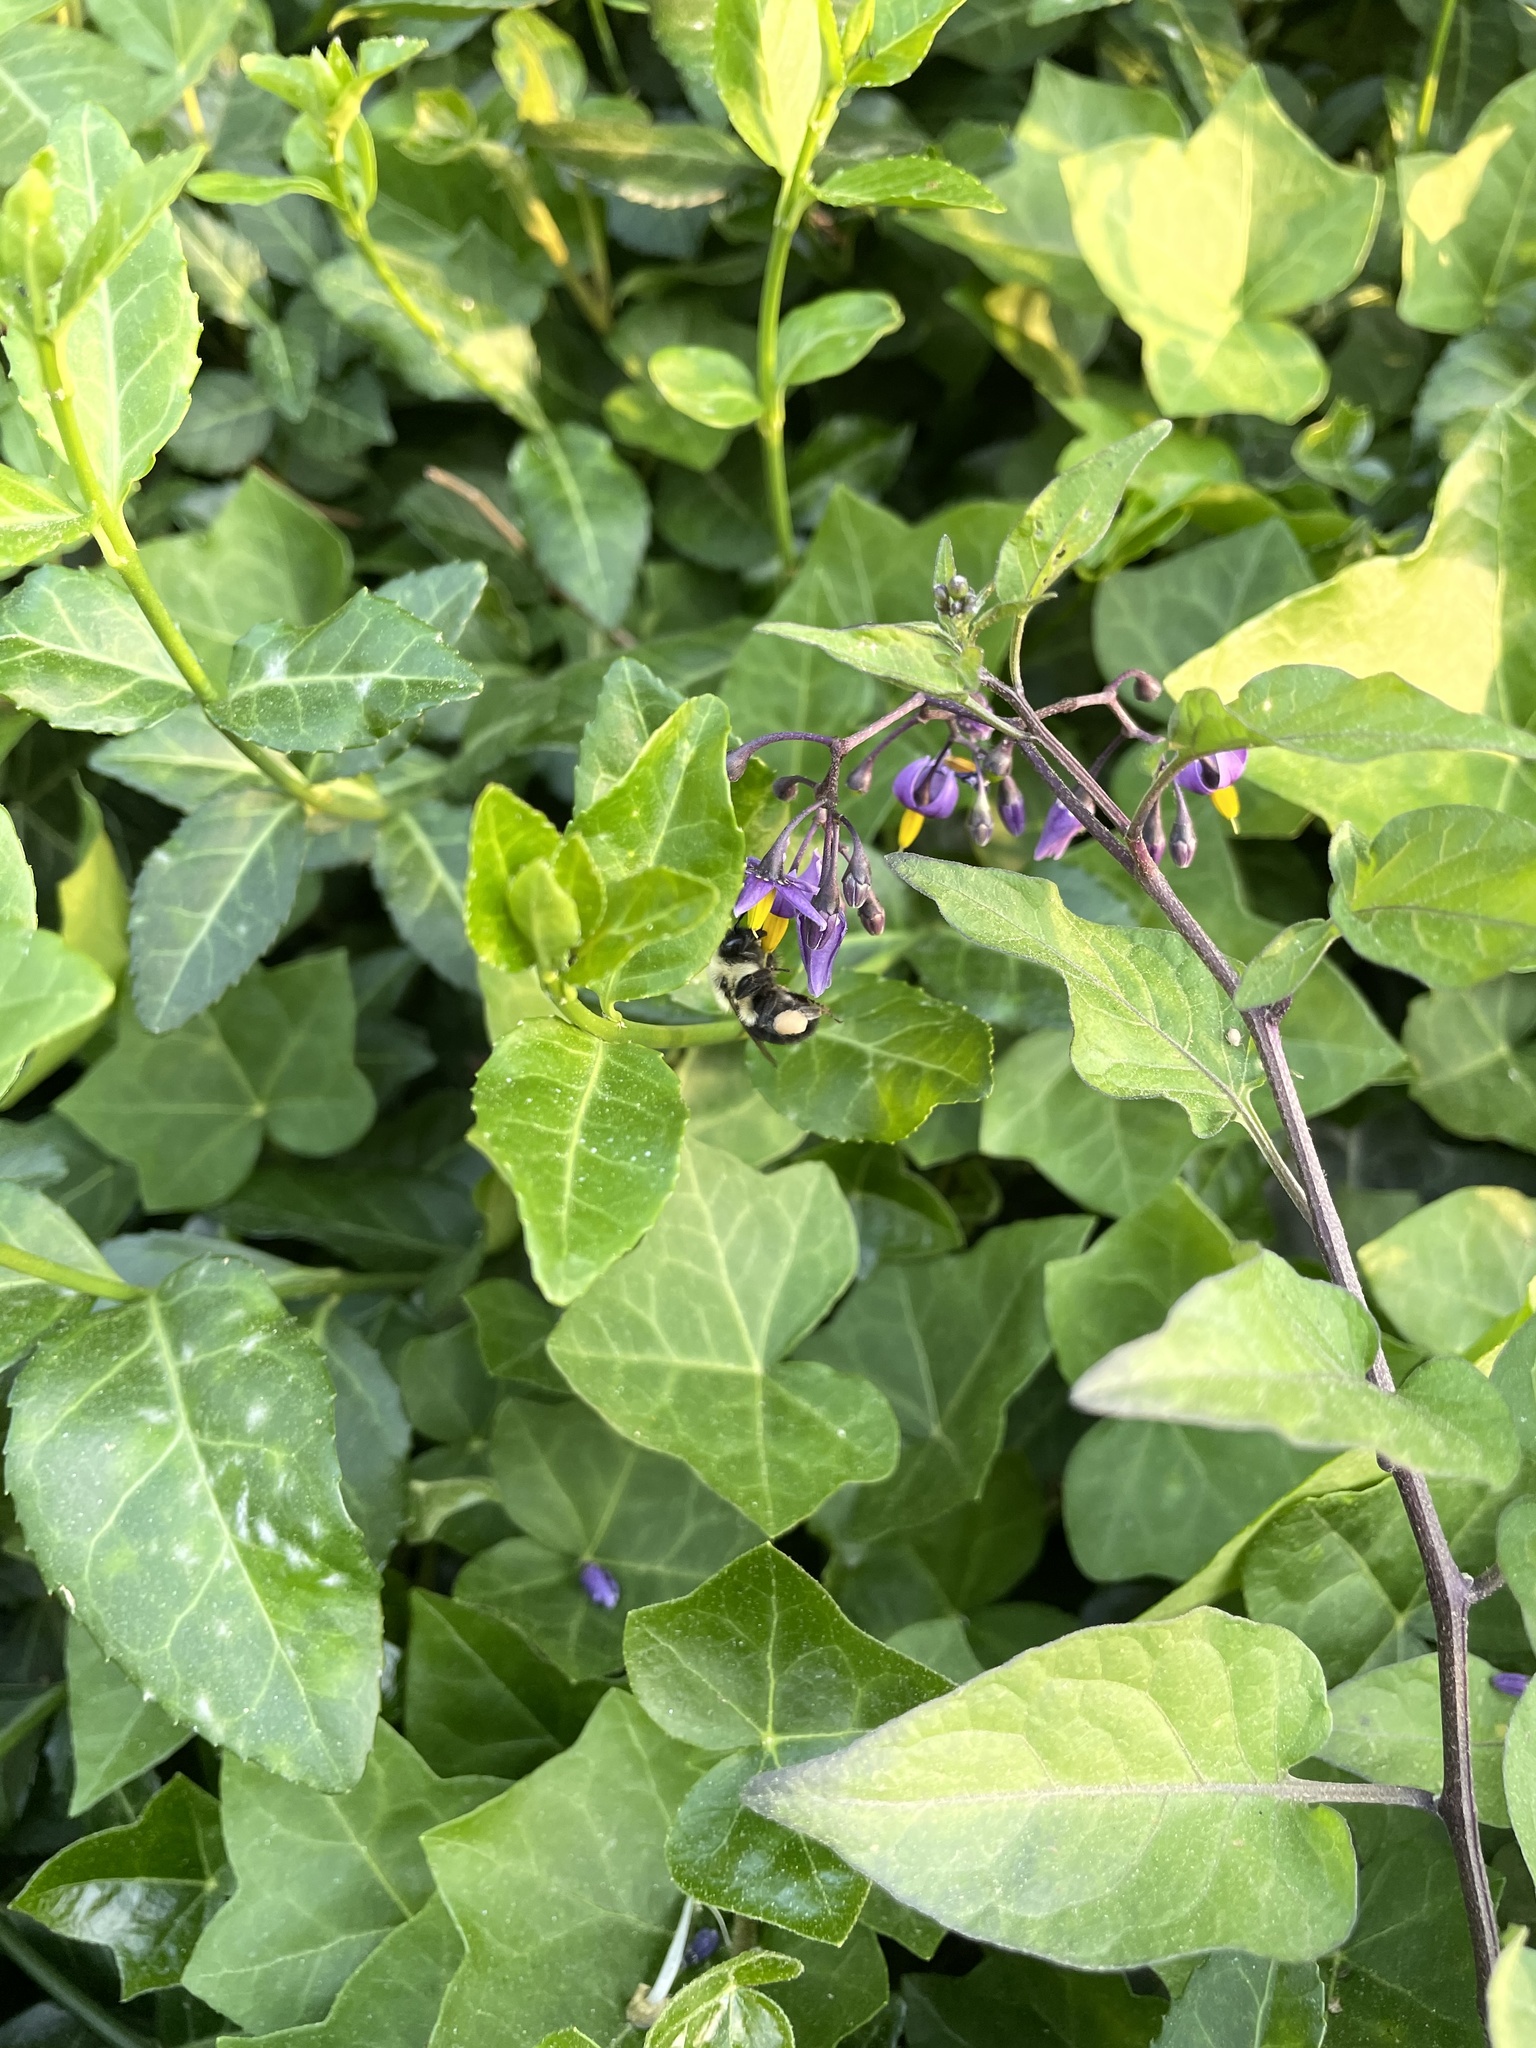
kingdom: Plantae
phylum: Tracheophyta
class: Magnoliopsida
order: Solanales
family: Solanaceae
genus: Solanum
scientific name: Solanum dulcamara
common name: Climbing nightshade
